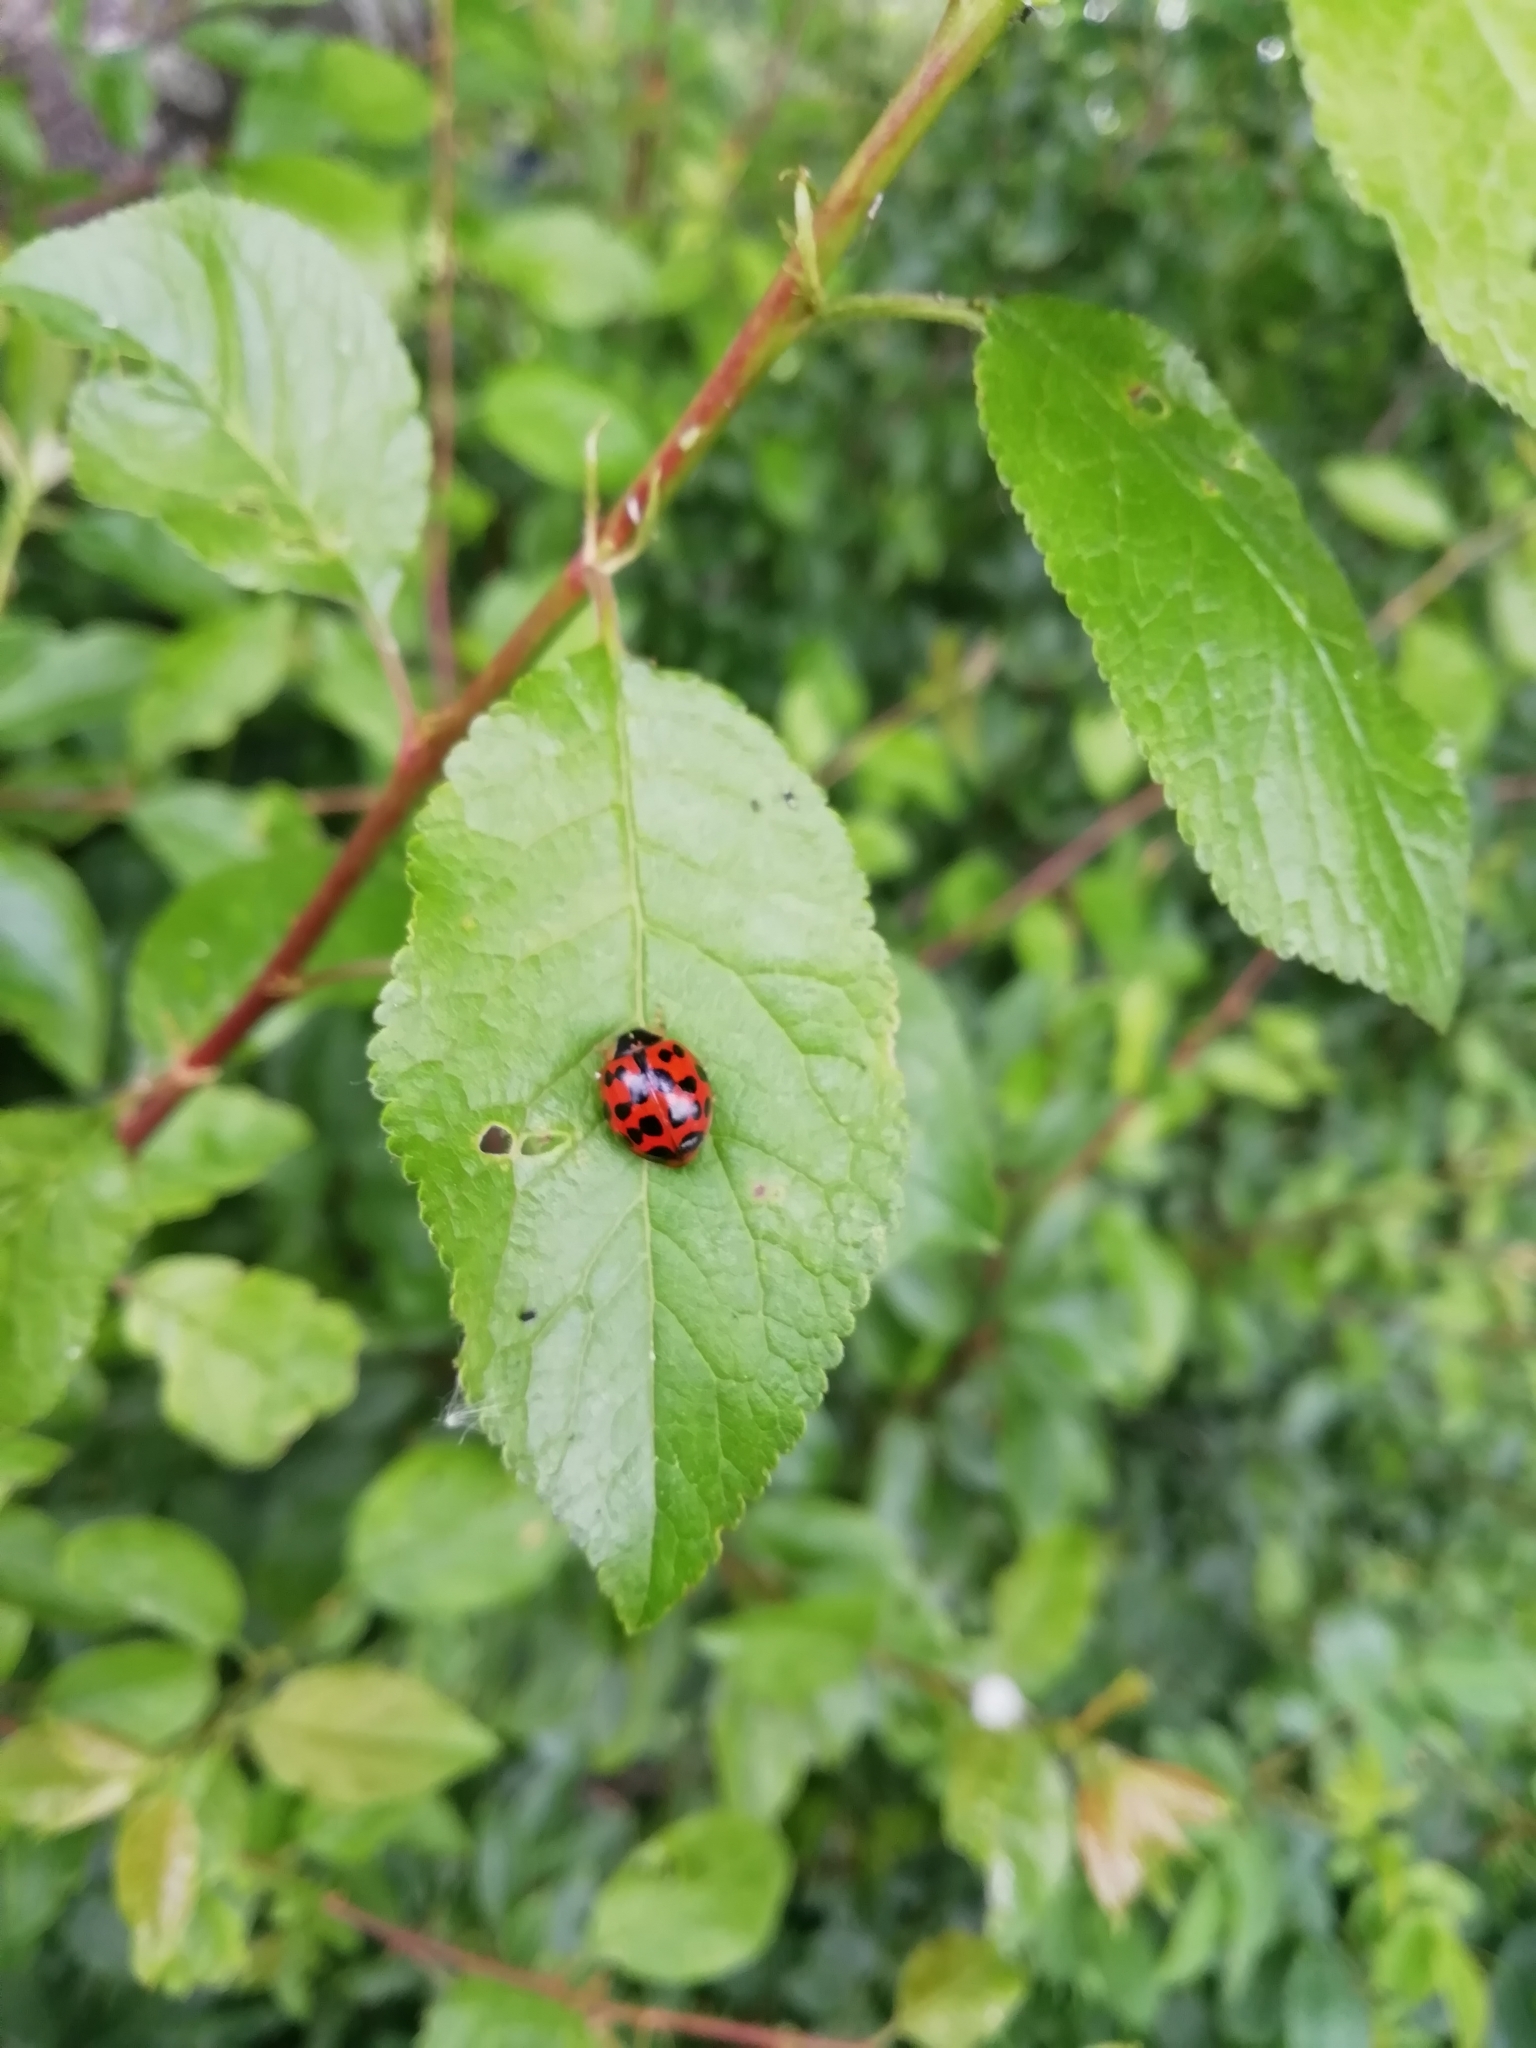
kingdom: Animalia
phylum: Arthropoda
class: Insecta
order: Coleoptera
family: Coccinellidae
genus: Harmonia
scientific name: Harmonia axyridis
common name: Harlequin ladybird
